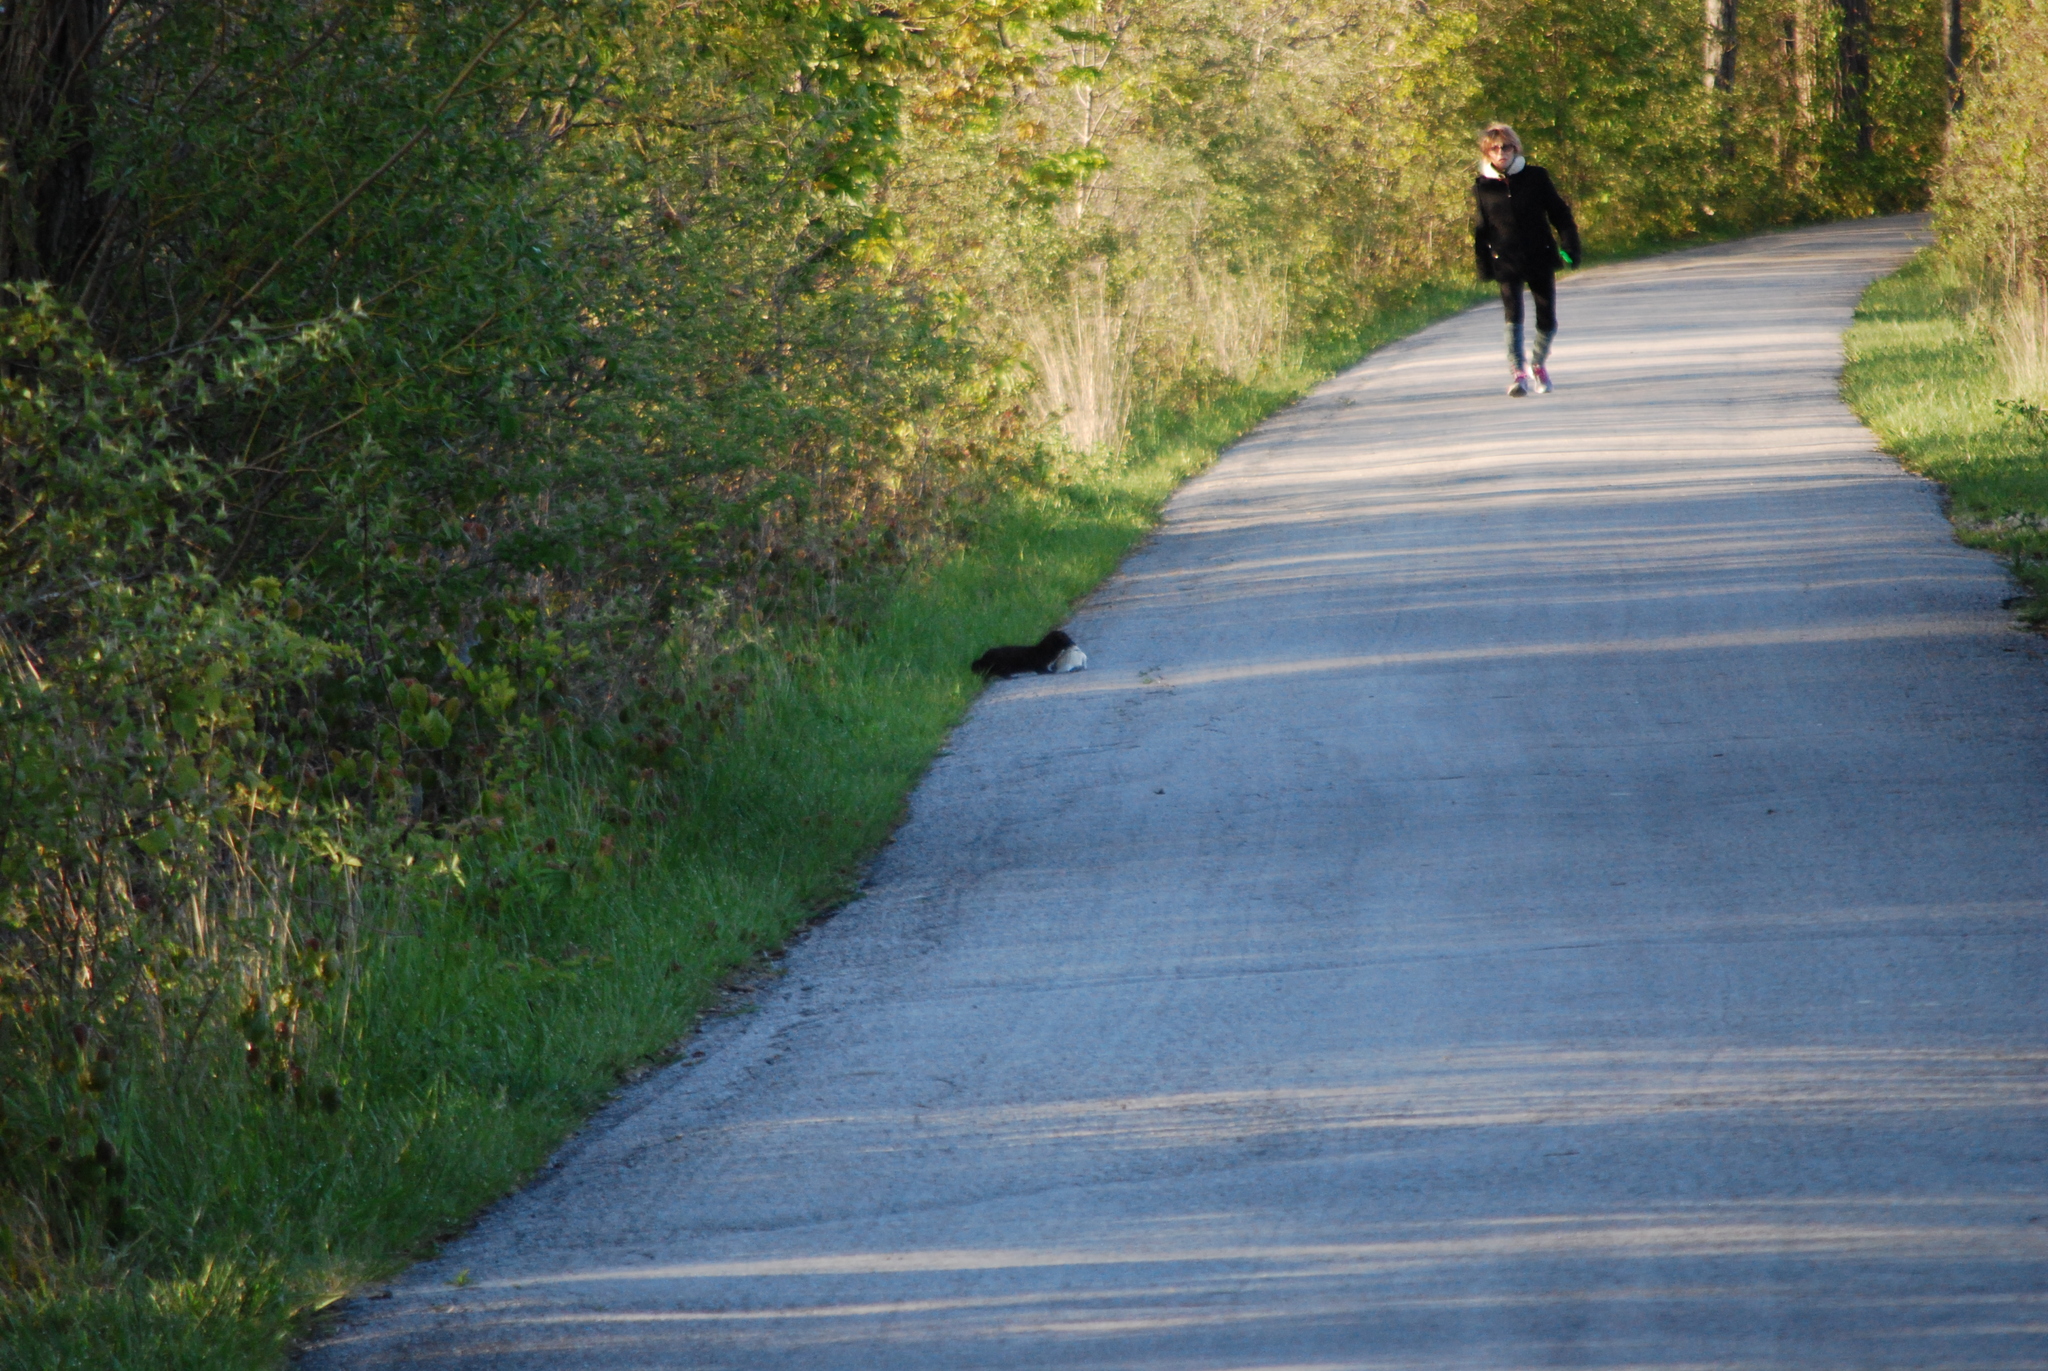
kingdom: Animalia
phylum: Chordata
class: Mammalia
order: Carnivora
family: Mustelidae
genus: Mustela
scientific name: Mustela
